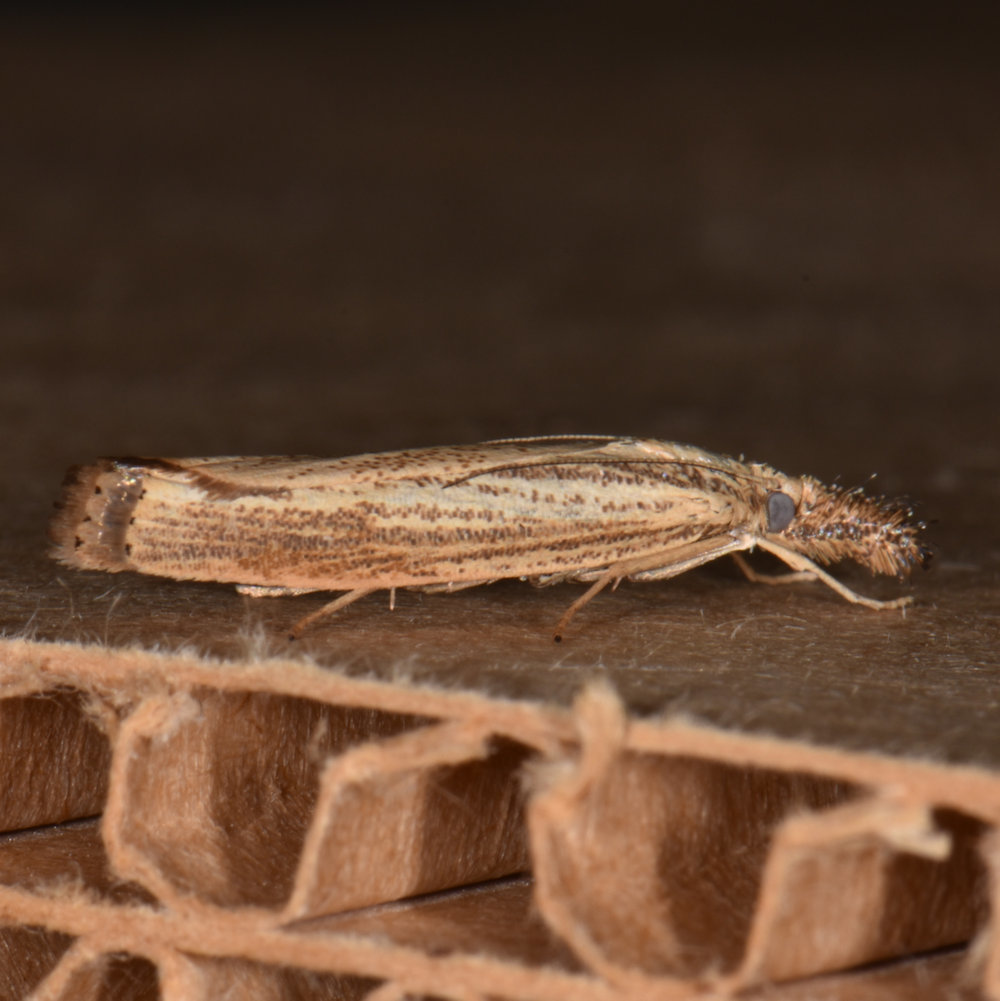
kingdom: Animalia
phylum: Arthropoda
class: Insecta
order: Lepidoptera
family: Crambidae
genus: Agriphila
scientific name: Agriphila vulgivagellus
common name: Vagabond crambus moth
